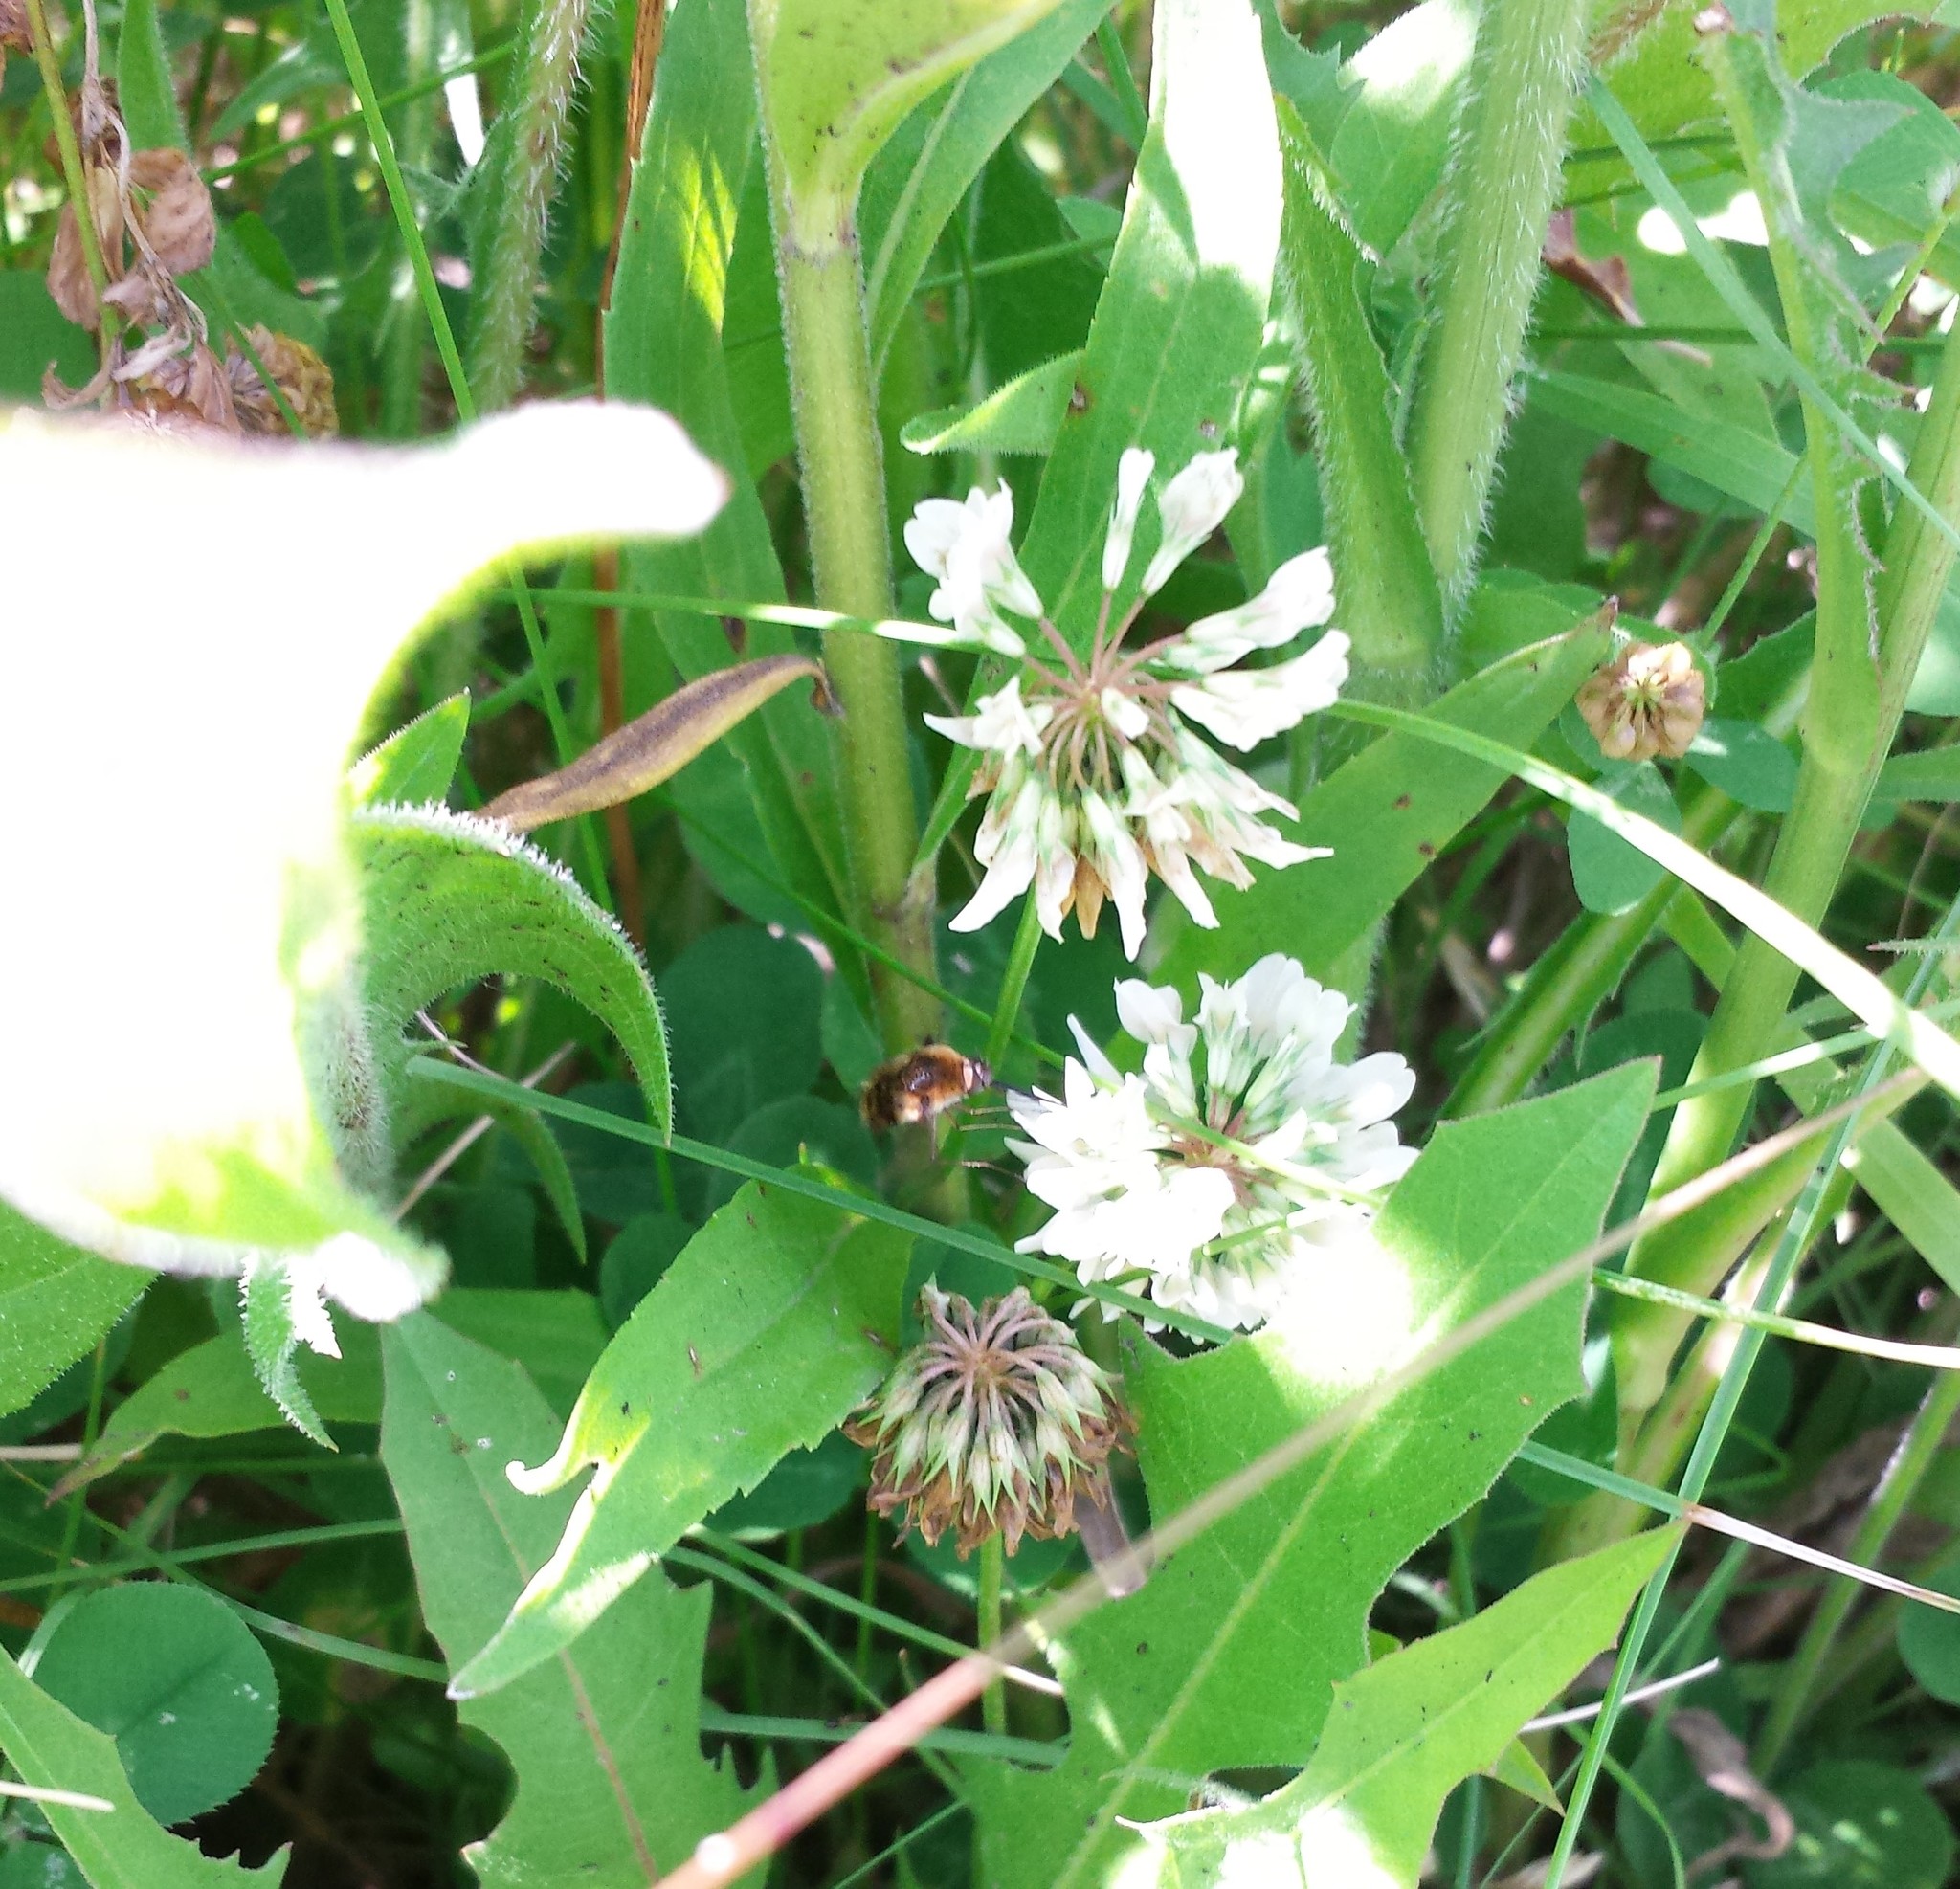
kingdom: Plantae
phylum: Tracheophyta
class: Magnoliopsida
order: Fabales
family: Fabaceae
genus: Trifolium
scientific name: Trifolium repens
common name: White clover
